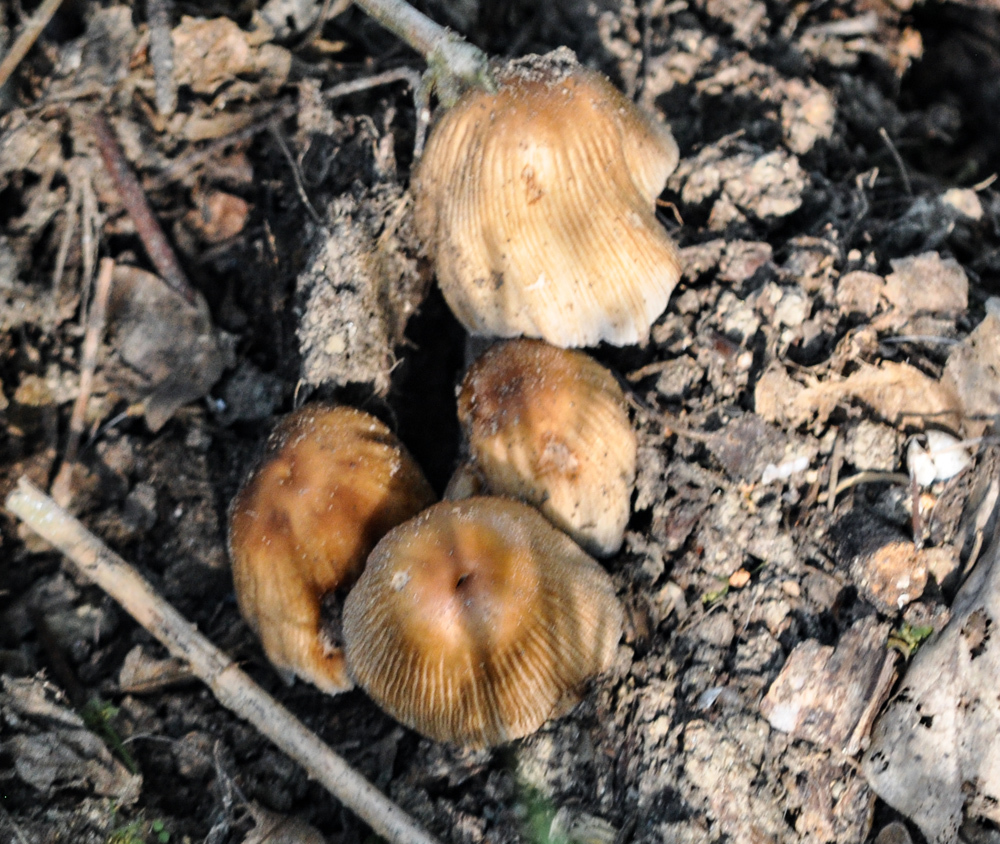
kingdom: Fungi
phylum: Basidiomycota
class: Agaricomycetes
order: Agaricales
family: Psathyrellaceae
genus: Coprinellus
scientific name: Coprinellus micaceus
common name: Glistening ink-cap
